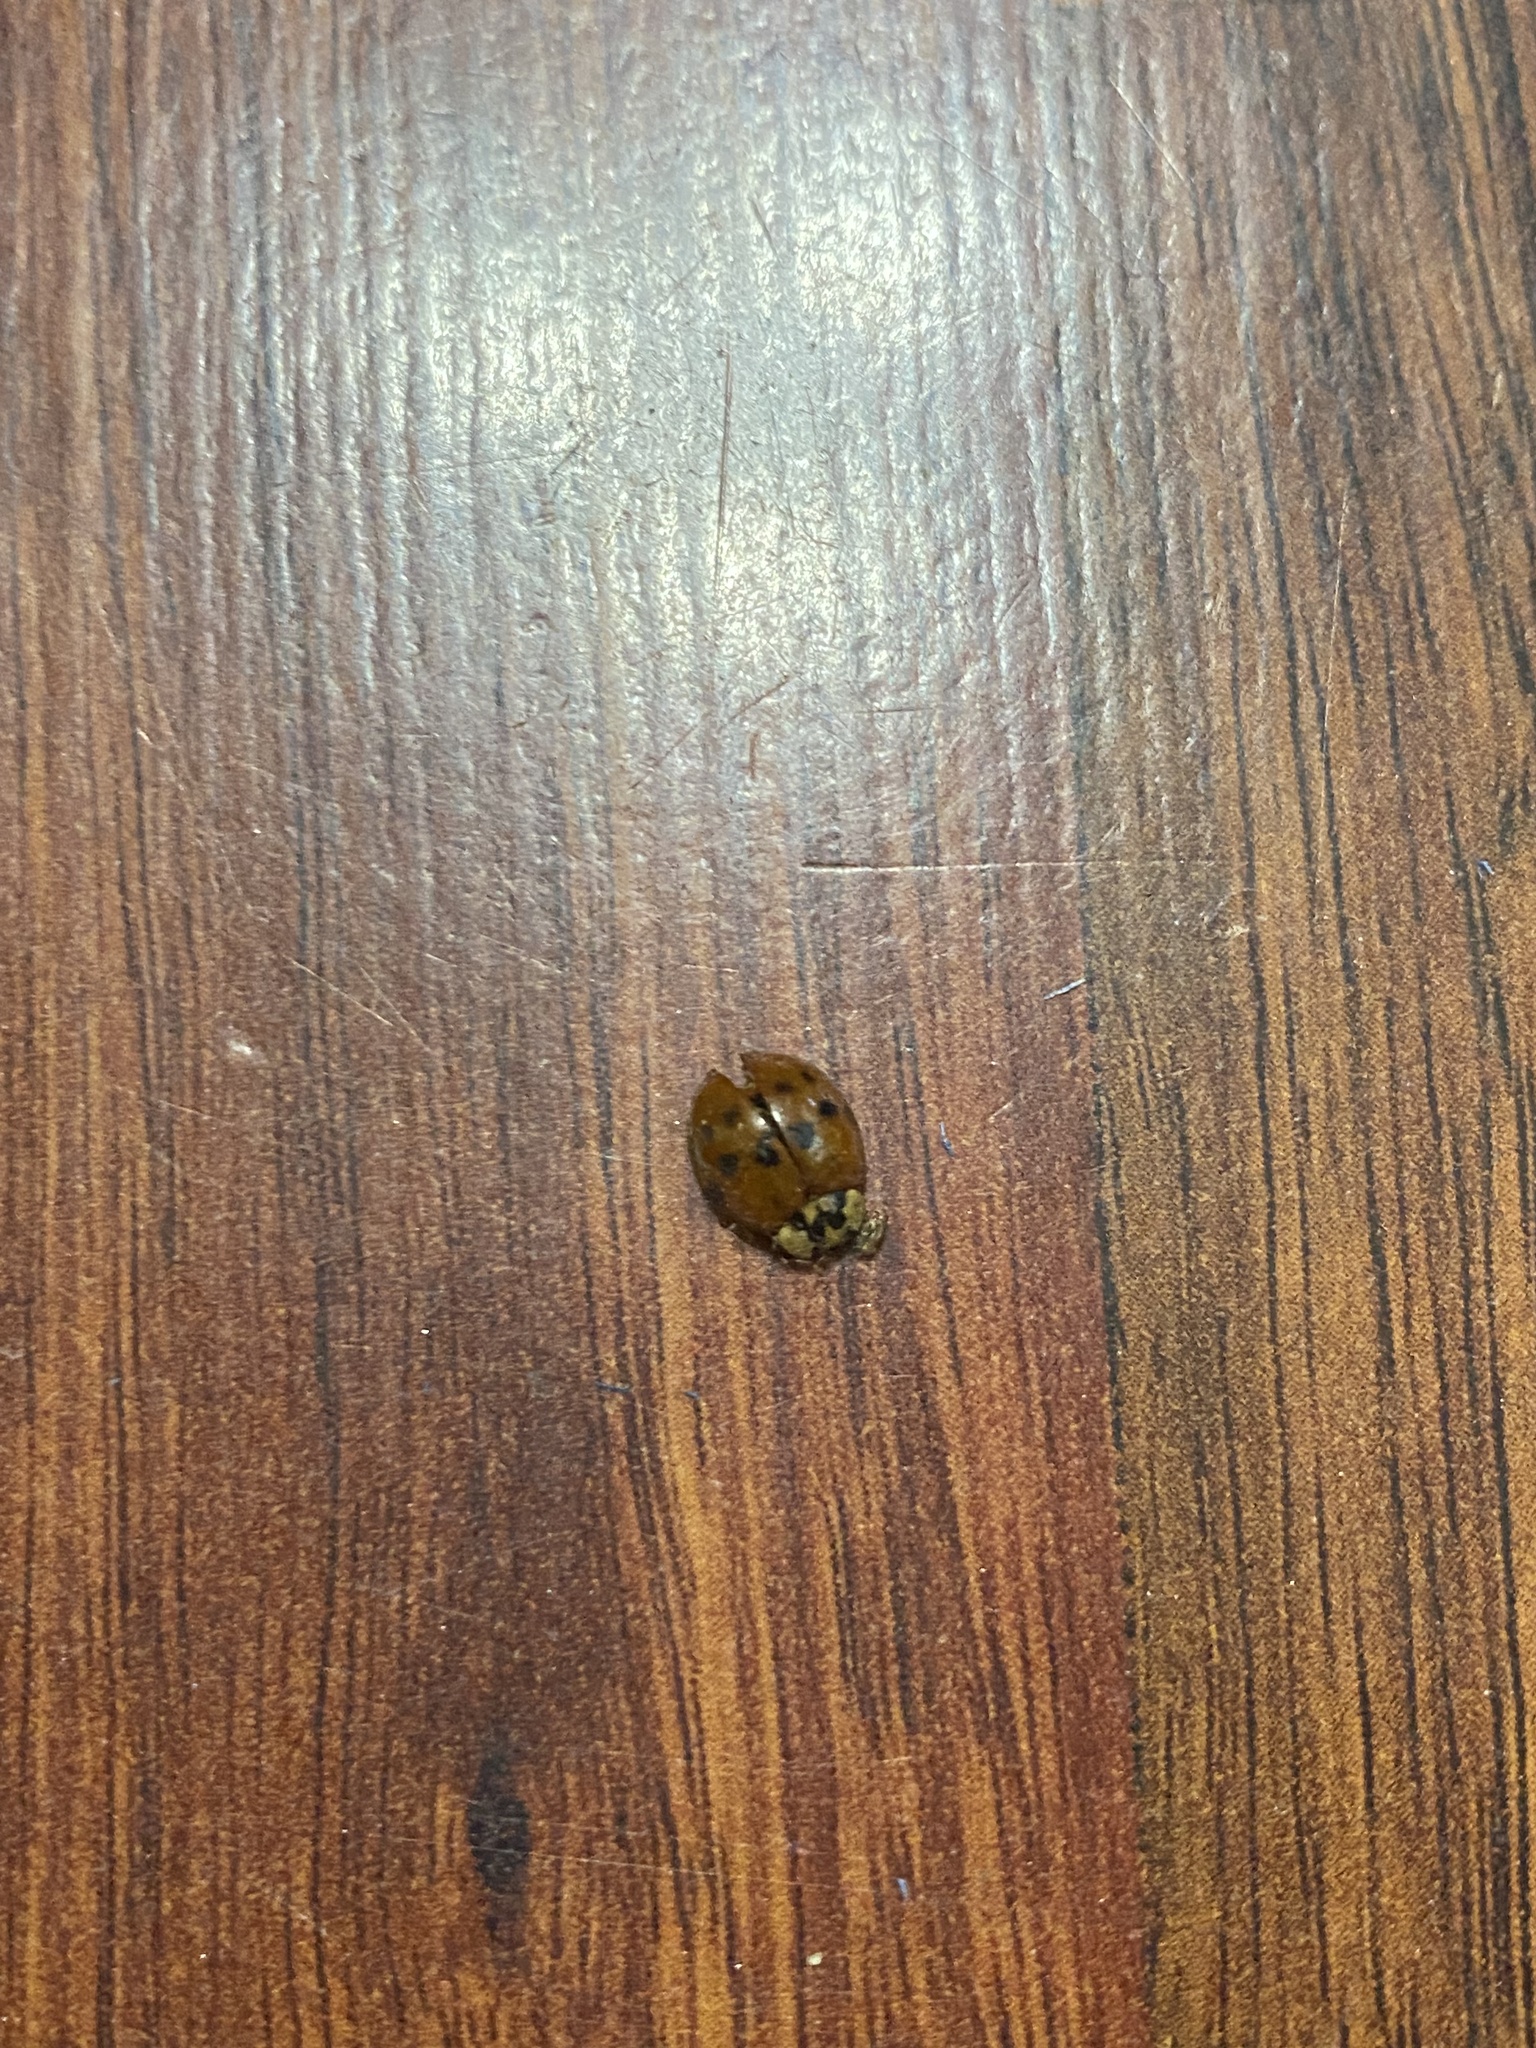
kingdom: Animalia
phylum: Arthropoda
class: Insecta
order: Coleoptera
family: Coccinellidae
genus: Harmonia
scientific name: Harmonia axyridis
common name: Harlequin ladybird
